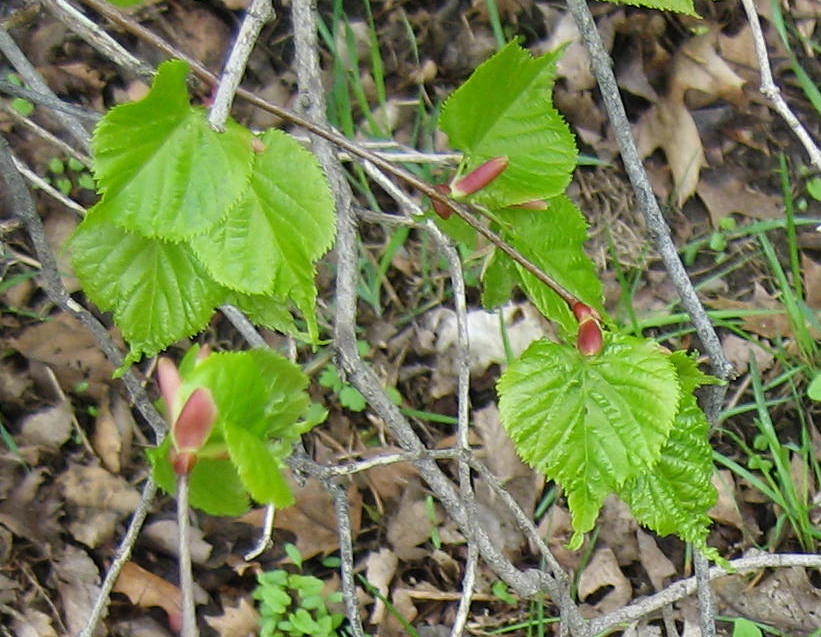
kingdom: Plantae
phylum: Tracheophyta
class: Magnoliopsida
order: Malvales
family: Malvaceae
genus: Tilia
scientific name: Tilia cordata
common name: Small-leaved lime
